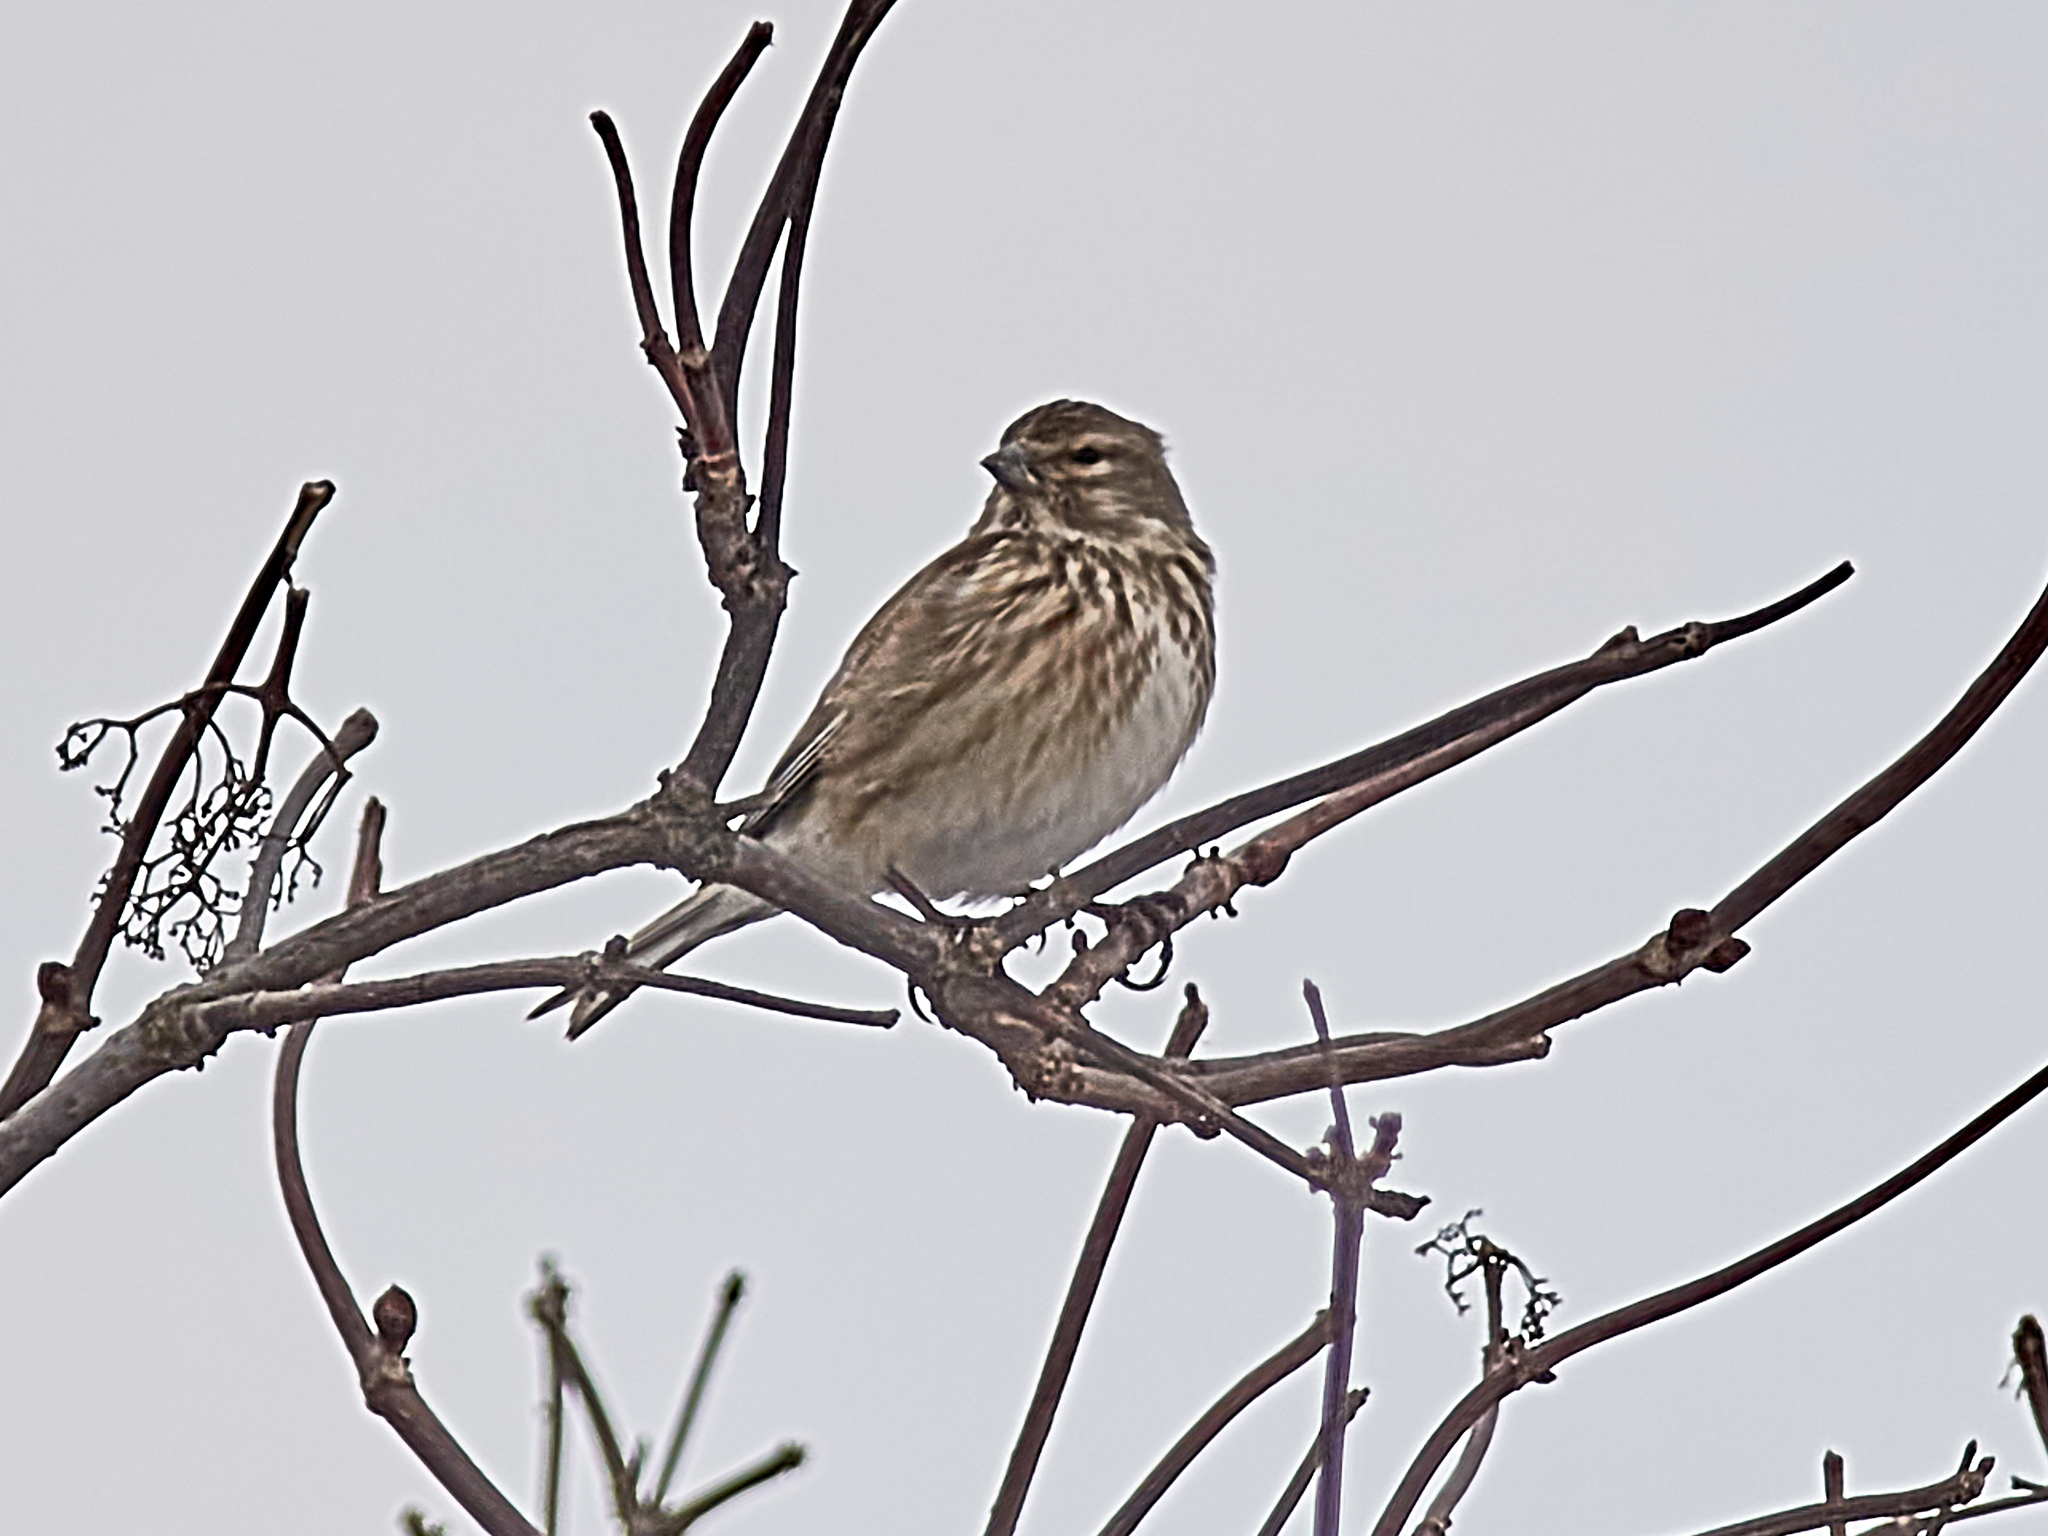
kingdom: Animalia
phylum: Chordata
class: Aves
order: Passeriformes
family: Fringillidae
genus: Linaria
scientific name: Linaria cannabina
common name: Common linnet
